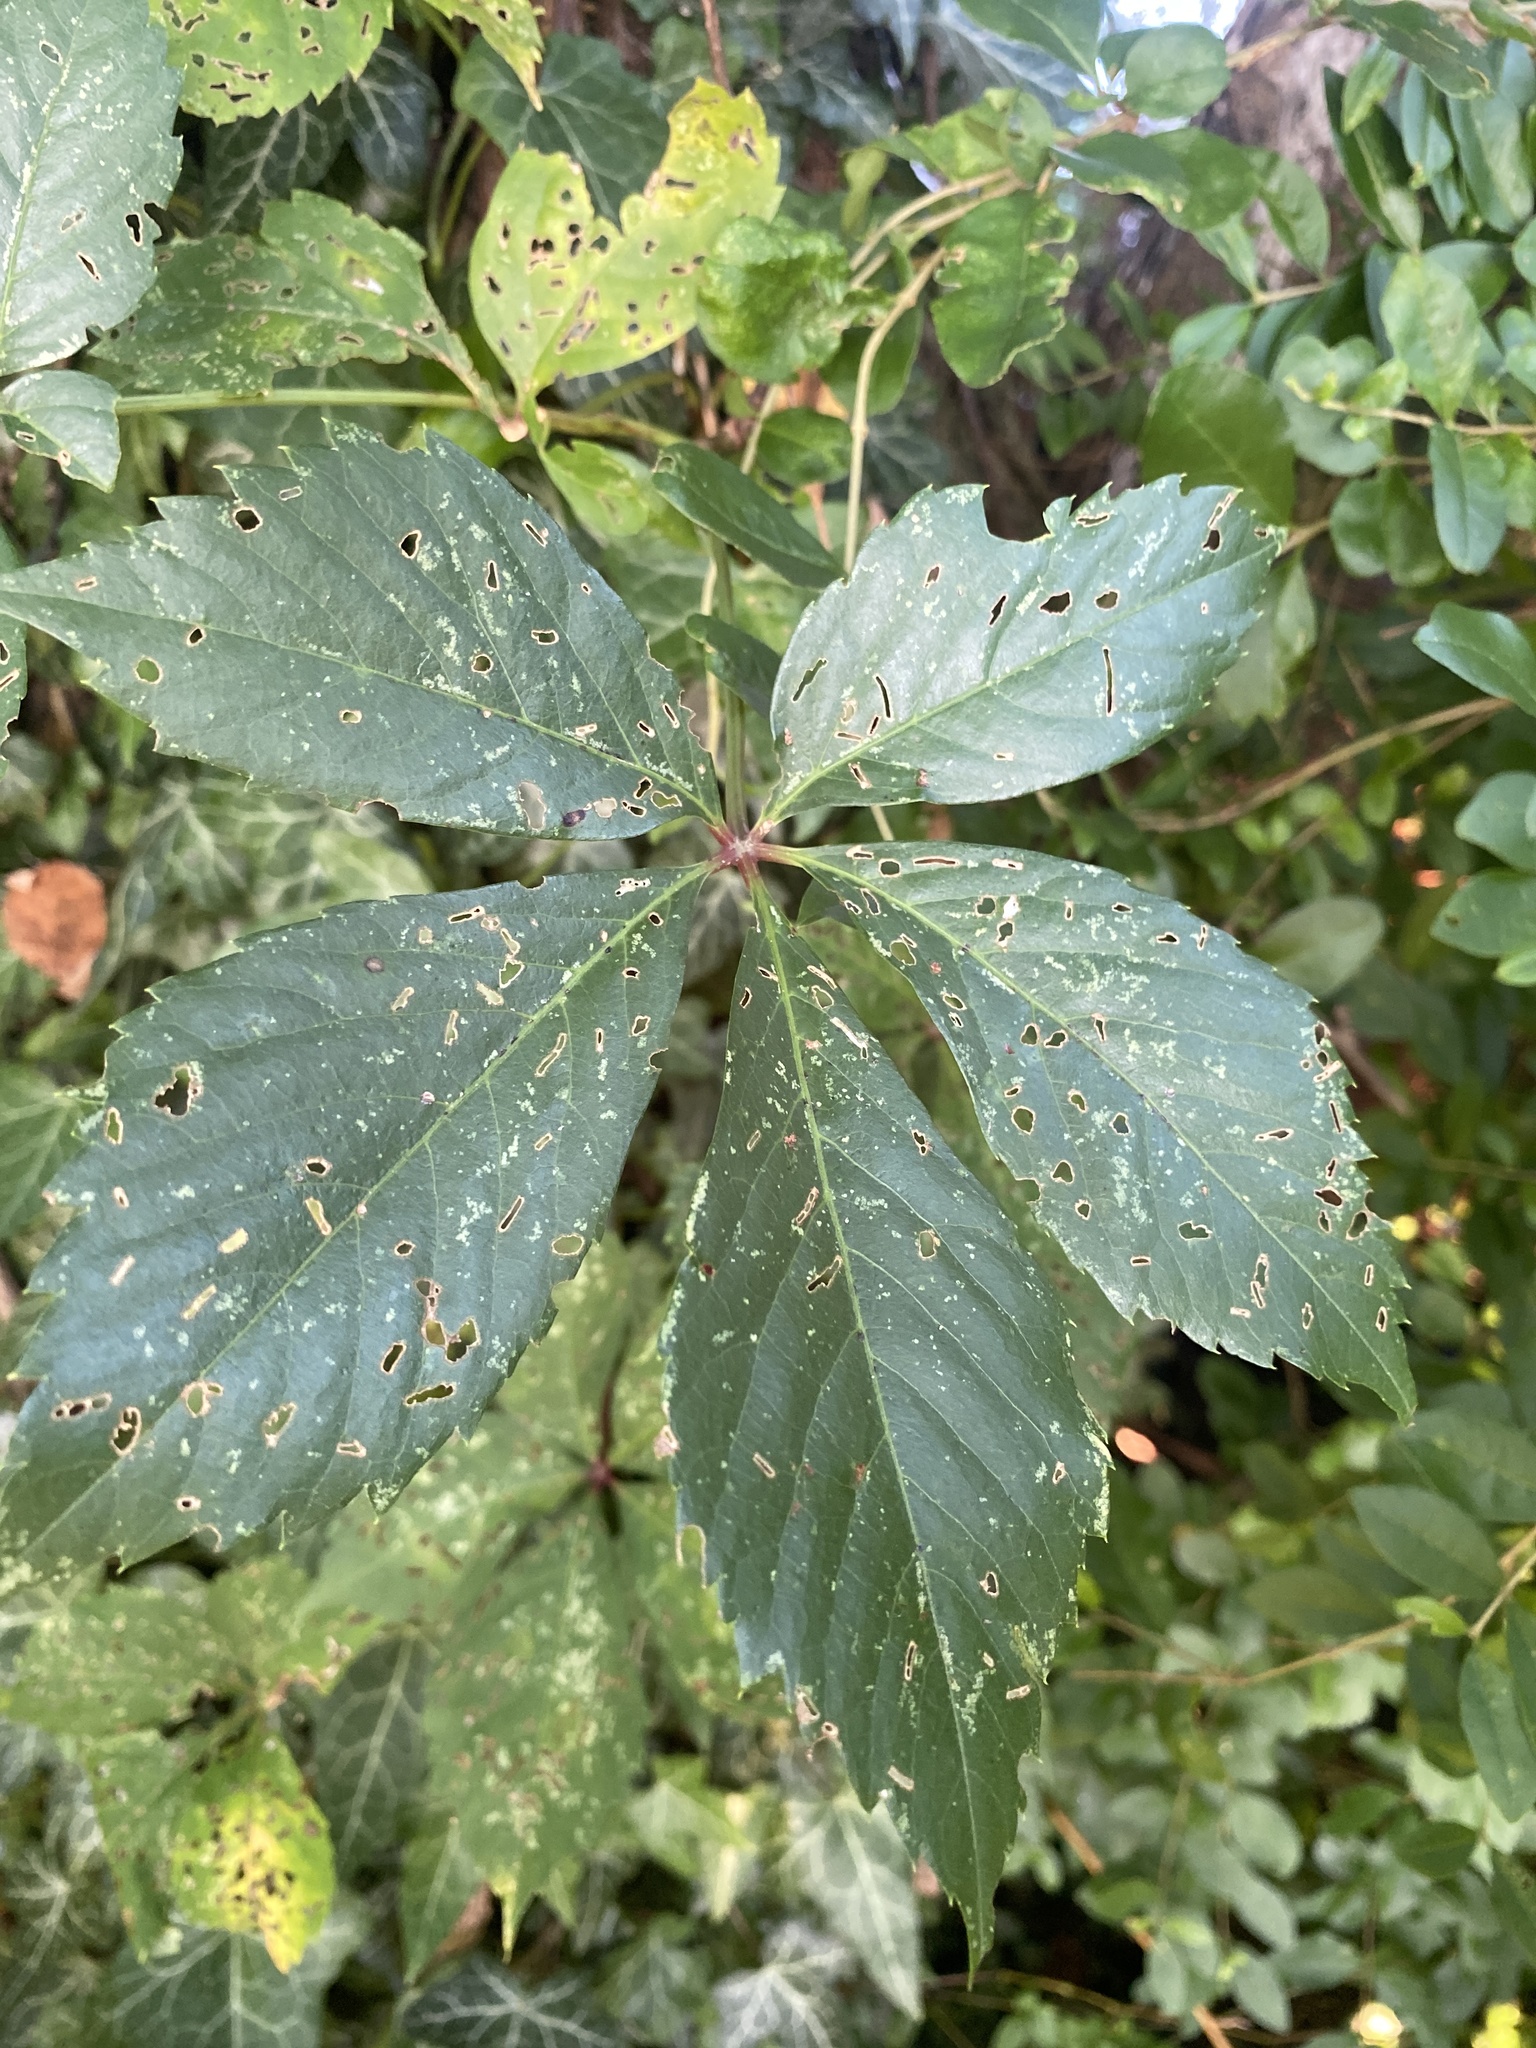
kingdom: Plantae
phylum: Tracheophyta
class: Magnoliopsida
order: Vitales
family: Vitaceae
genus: Parthenocissus
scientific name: Parthenocissus quinquefolia
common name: Virginia-creeper
